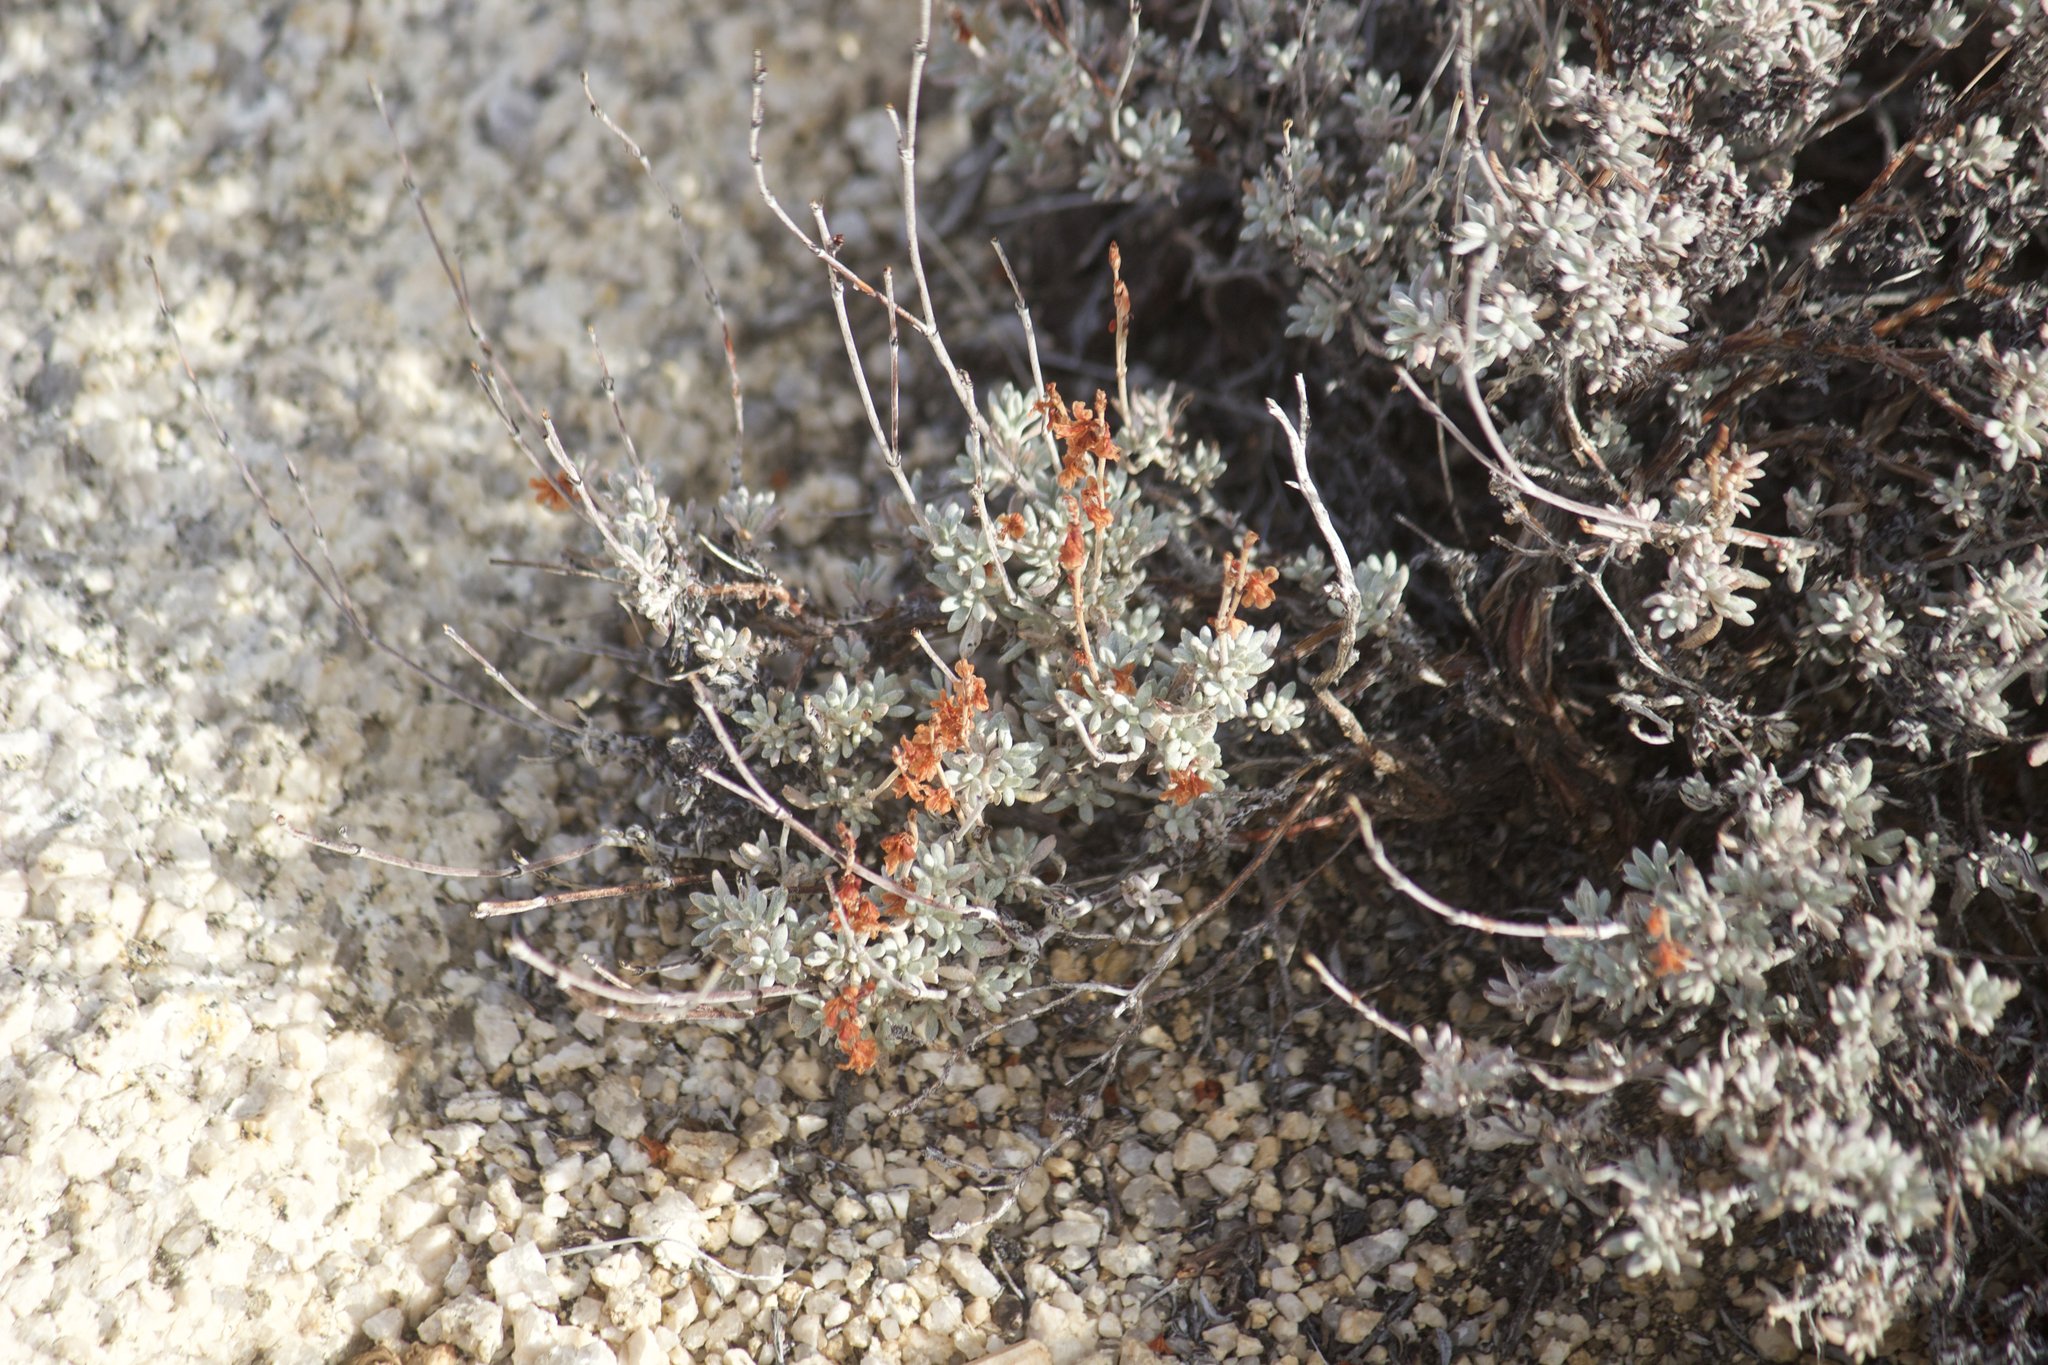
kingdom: Plantae
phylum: Tracheophyta
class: Magnoliopsida
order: Caryophyllales
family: Polygonaceae
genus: Eriogonum
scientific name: Eriogonum wrightii
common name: Bastard-sage
